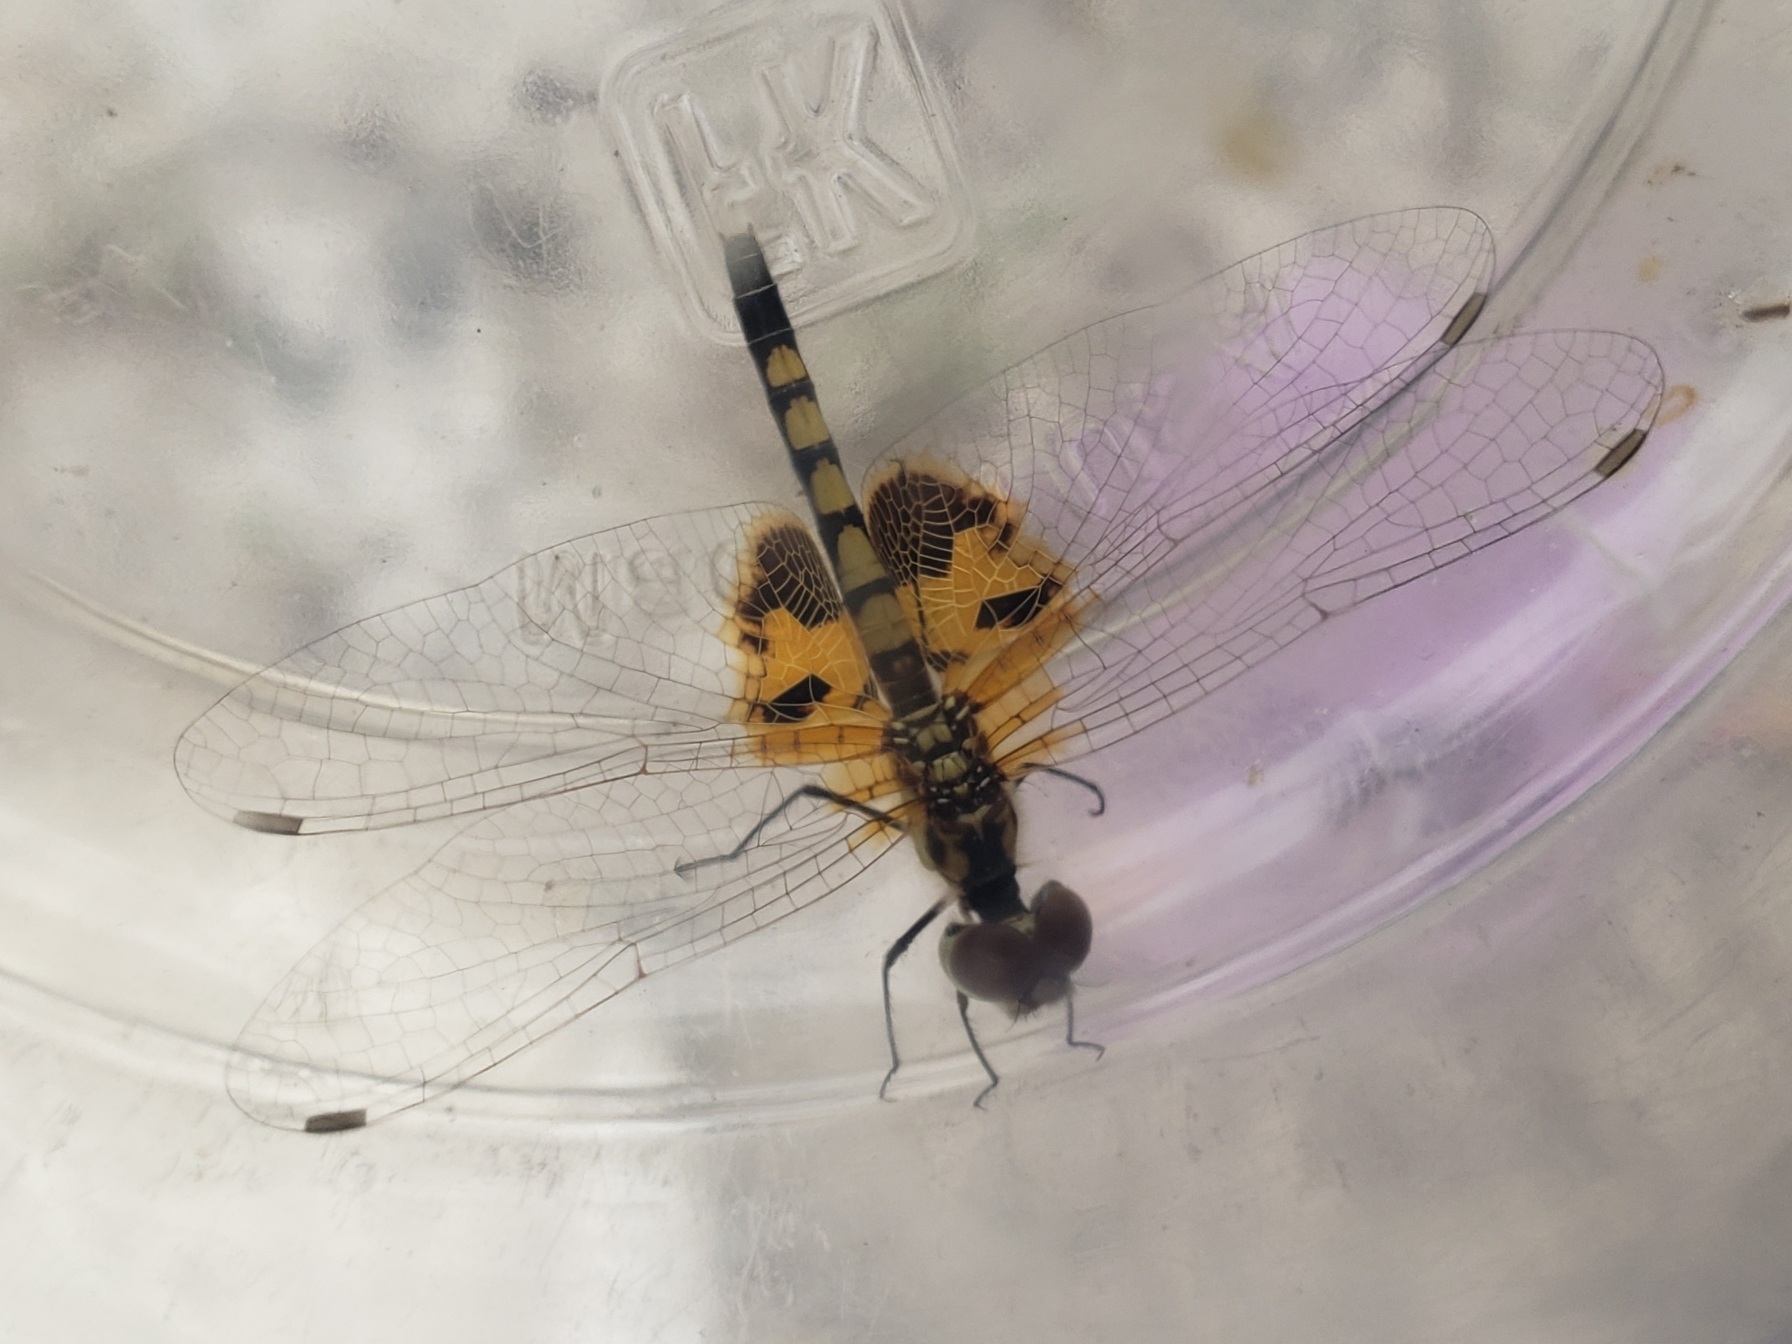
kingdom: Animalia
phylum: Arthropoda
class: Insecta
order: Odonata
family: Libellulidae
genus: Celithemis
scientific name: Celithemis amanda
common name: Amanda's pennant
